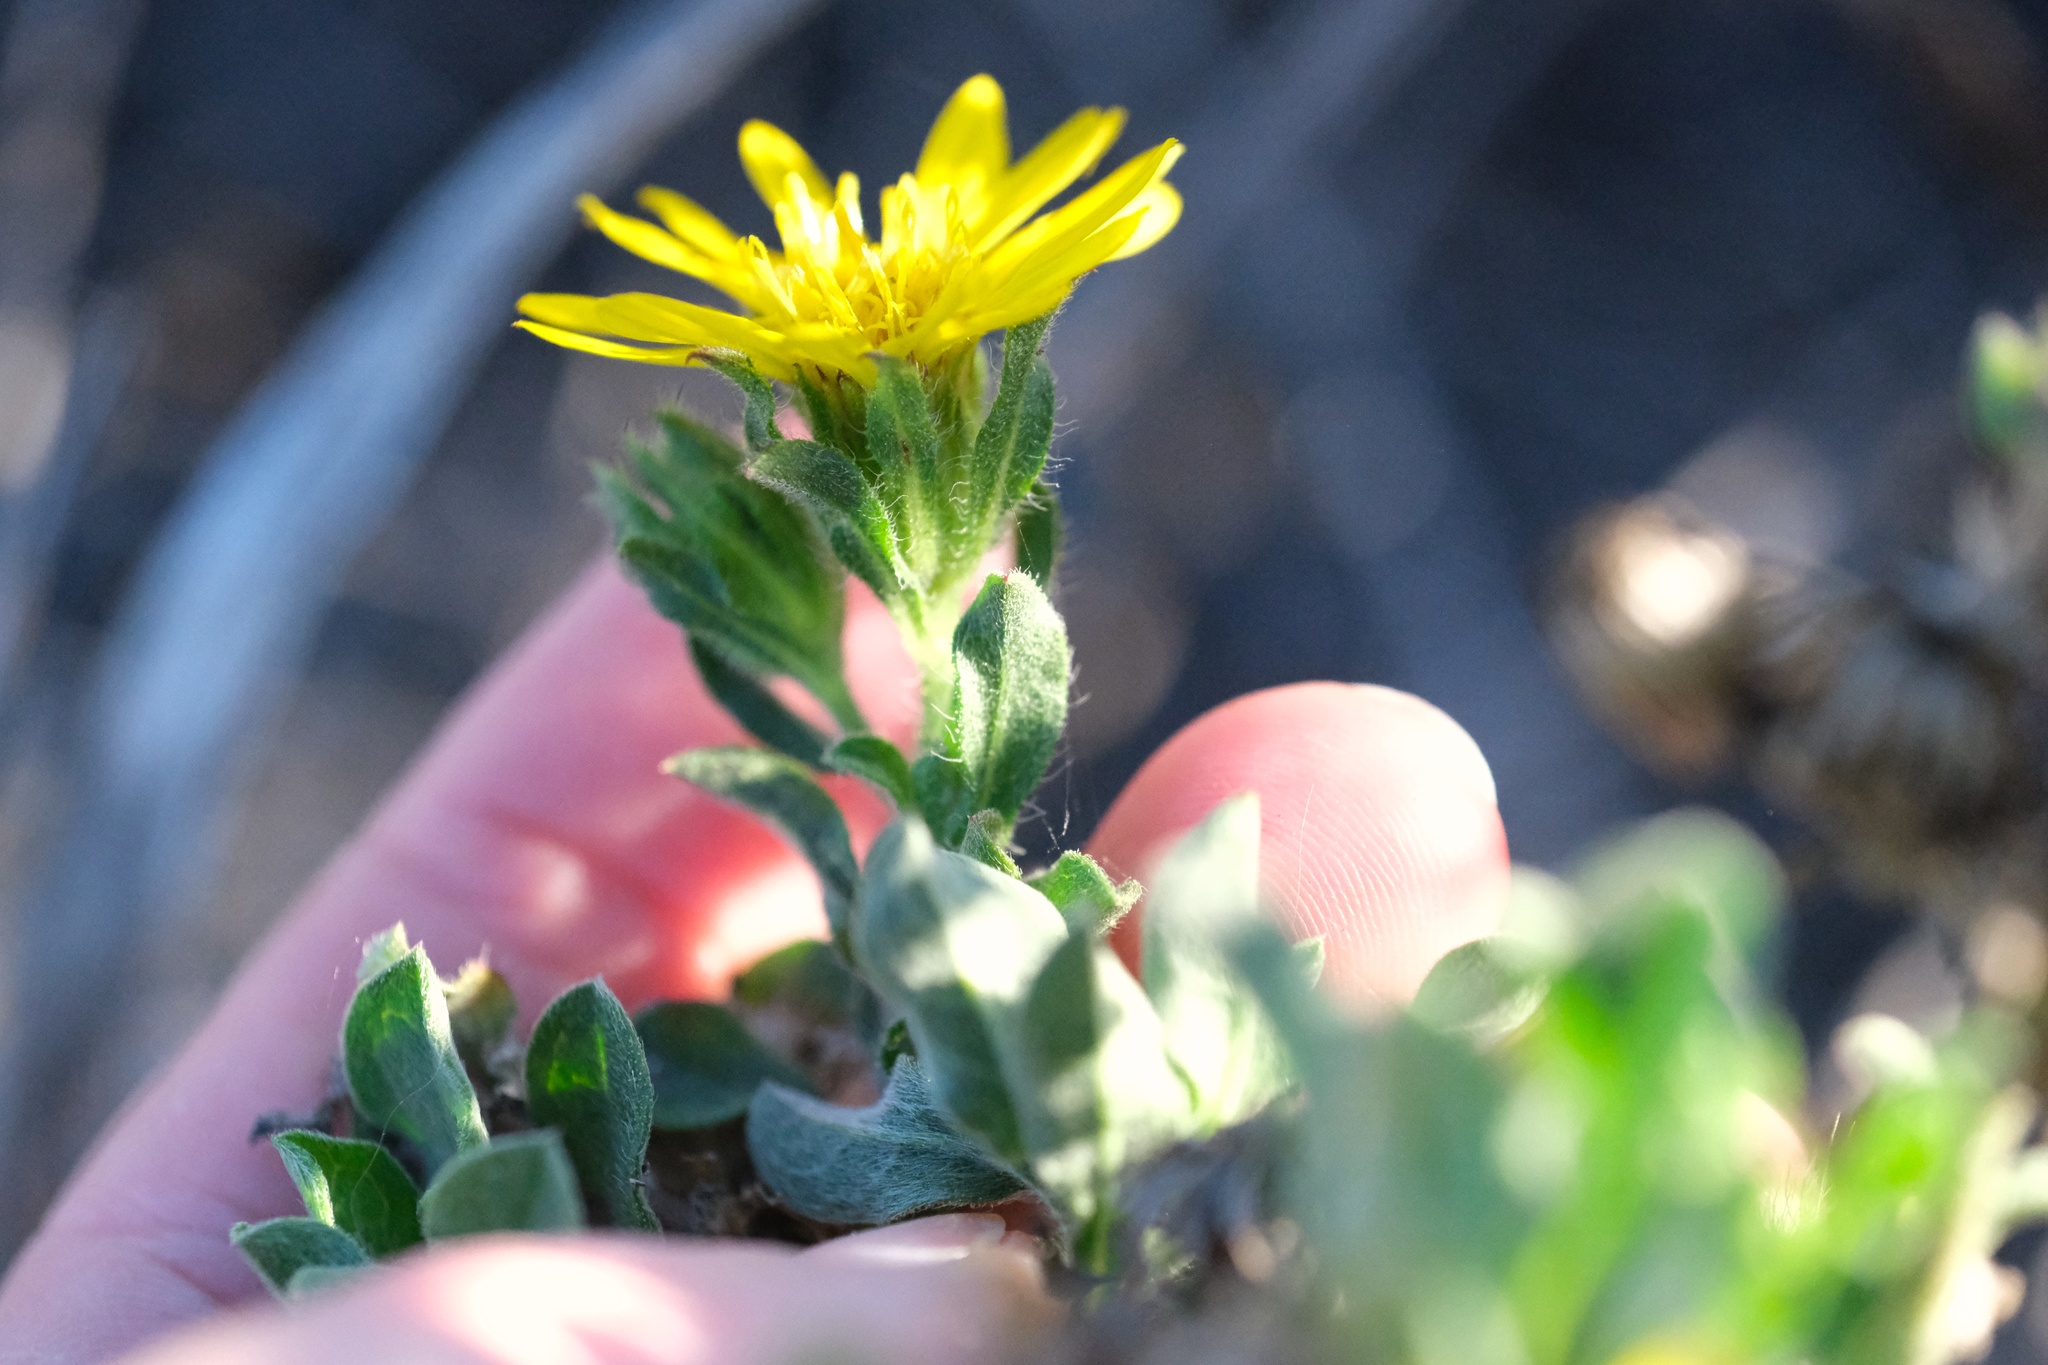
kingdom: Plantae
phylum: Tracheophyta
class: Magnoliopsida
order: Asterales
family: Asteraceae
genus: Heterotheca
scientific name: Heterotheca sessiliflora
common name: Sessile-flower golden-aster
